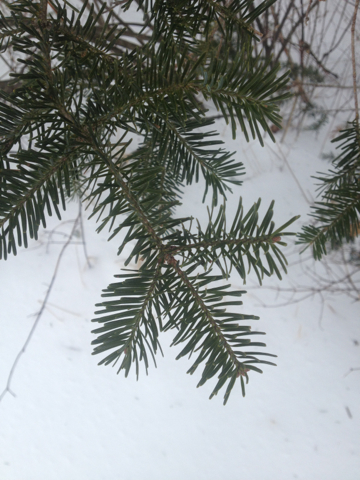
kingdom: Plantae
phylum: Tracheophyta
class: Pinopsida
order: Pinales
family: Pinaceae
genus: Abies
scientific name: Abies balsamea
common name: Balsam fir
